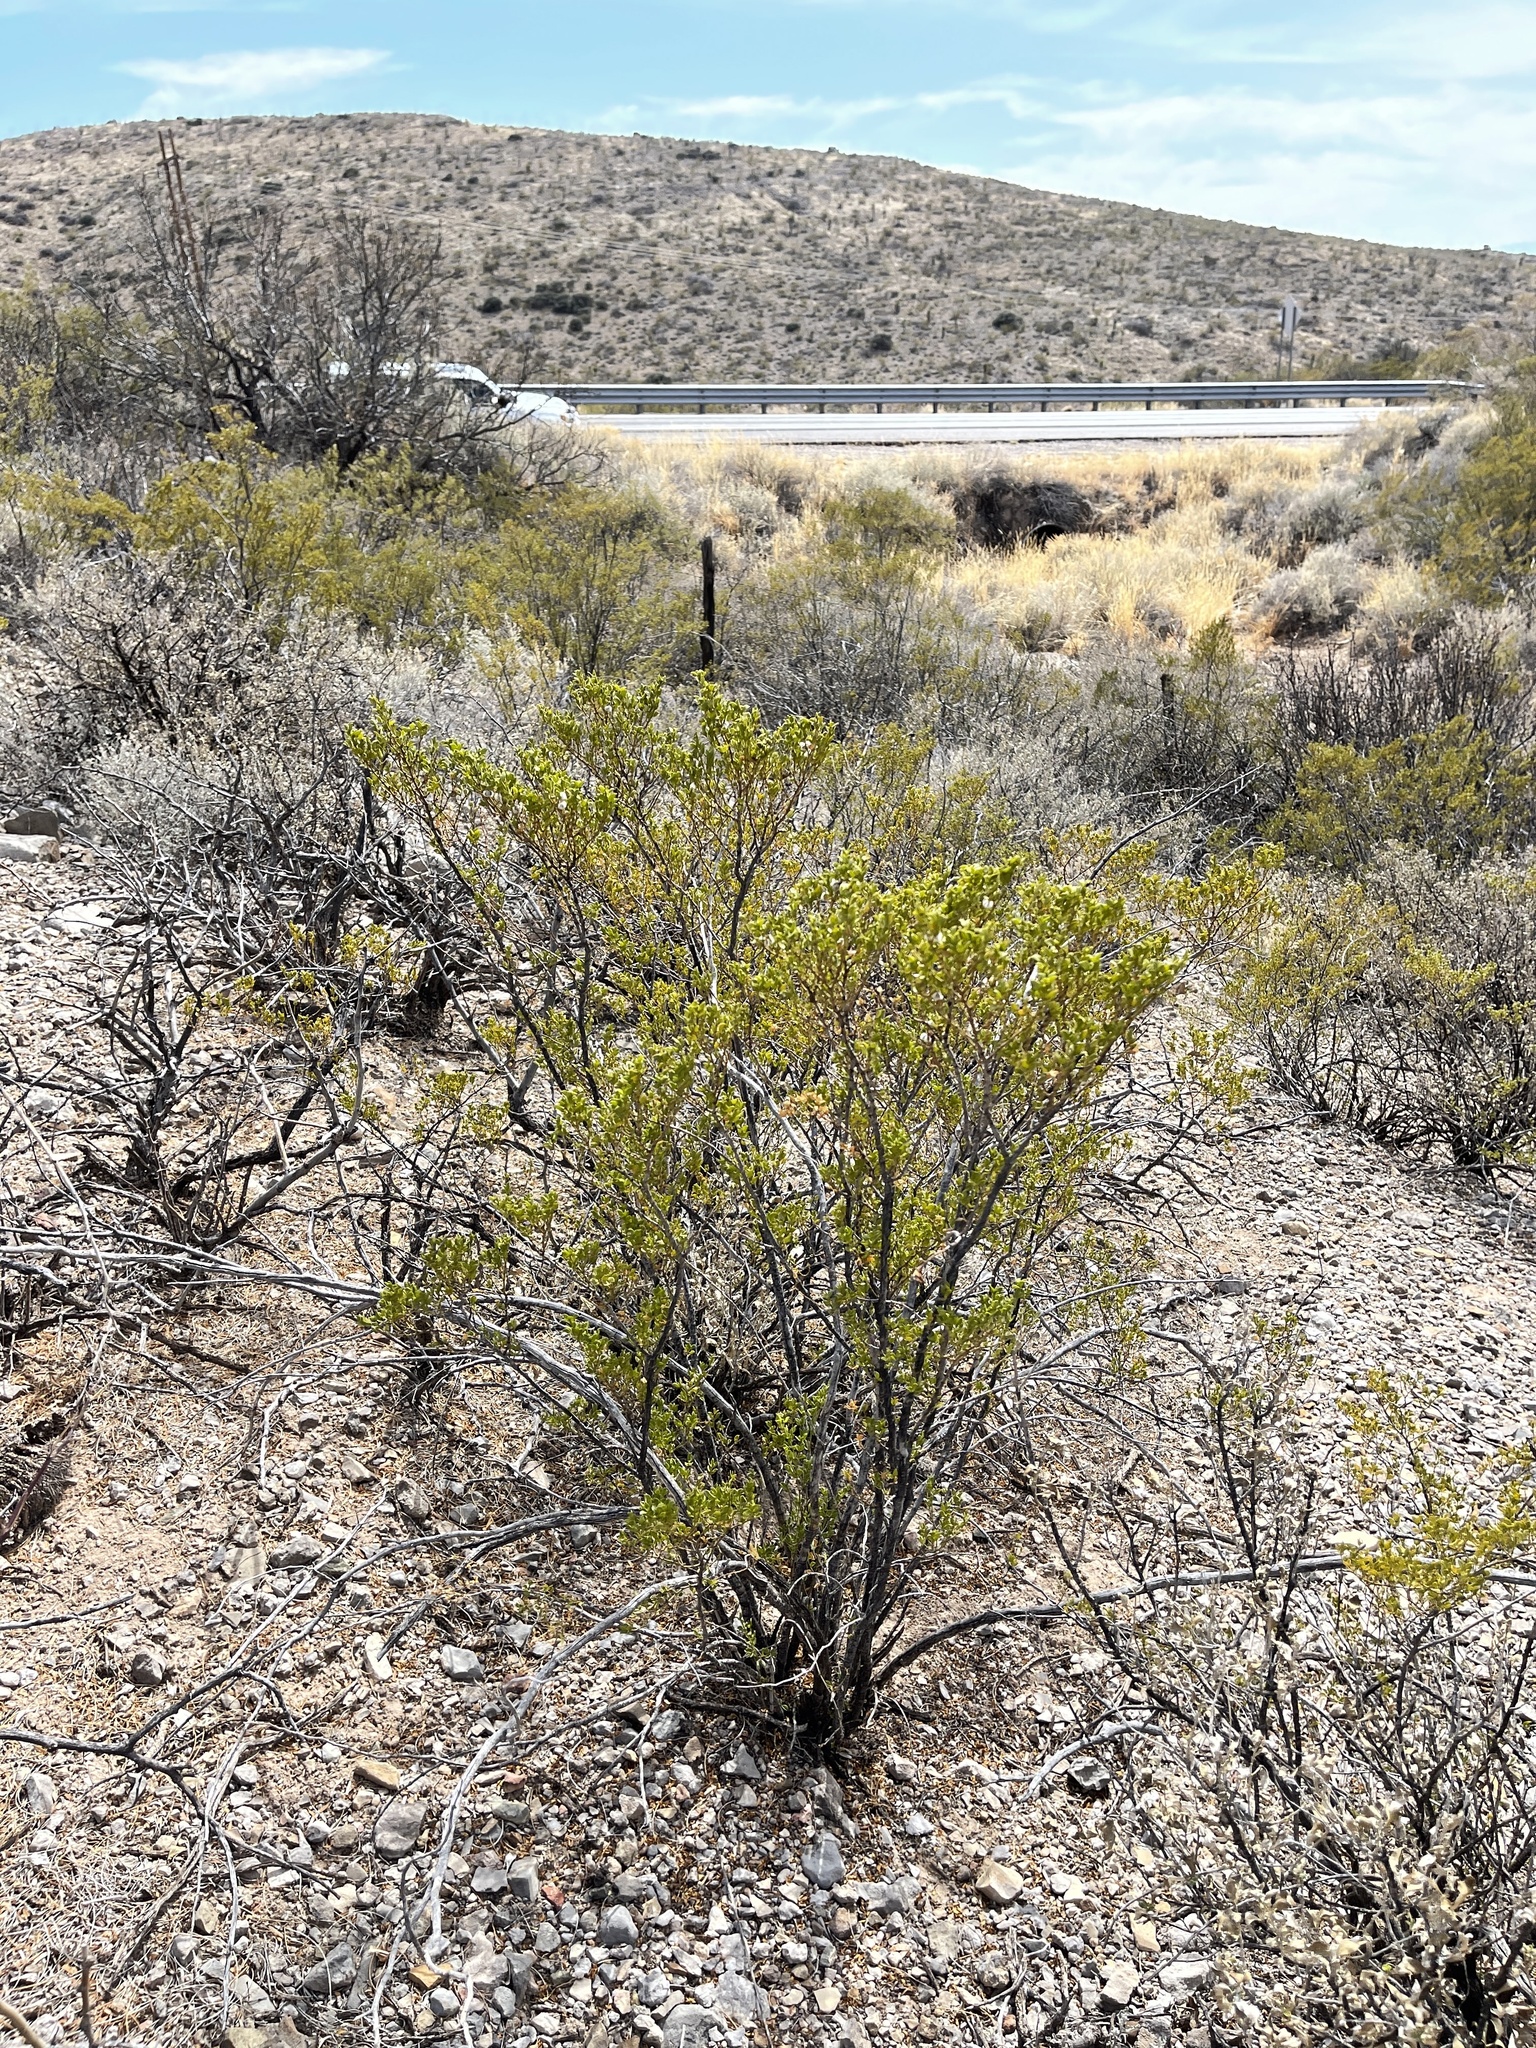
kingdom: Plantae
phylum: Tracheophyta
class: Magnoliopsida
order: Zygophyllales
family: Zygophyllaceae
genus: Larrea
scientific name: Larrea tridentata
